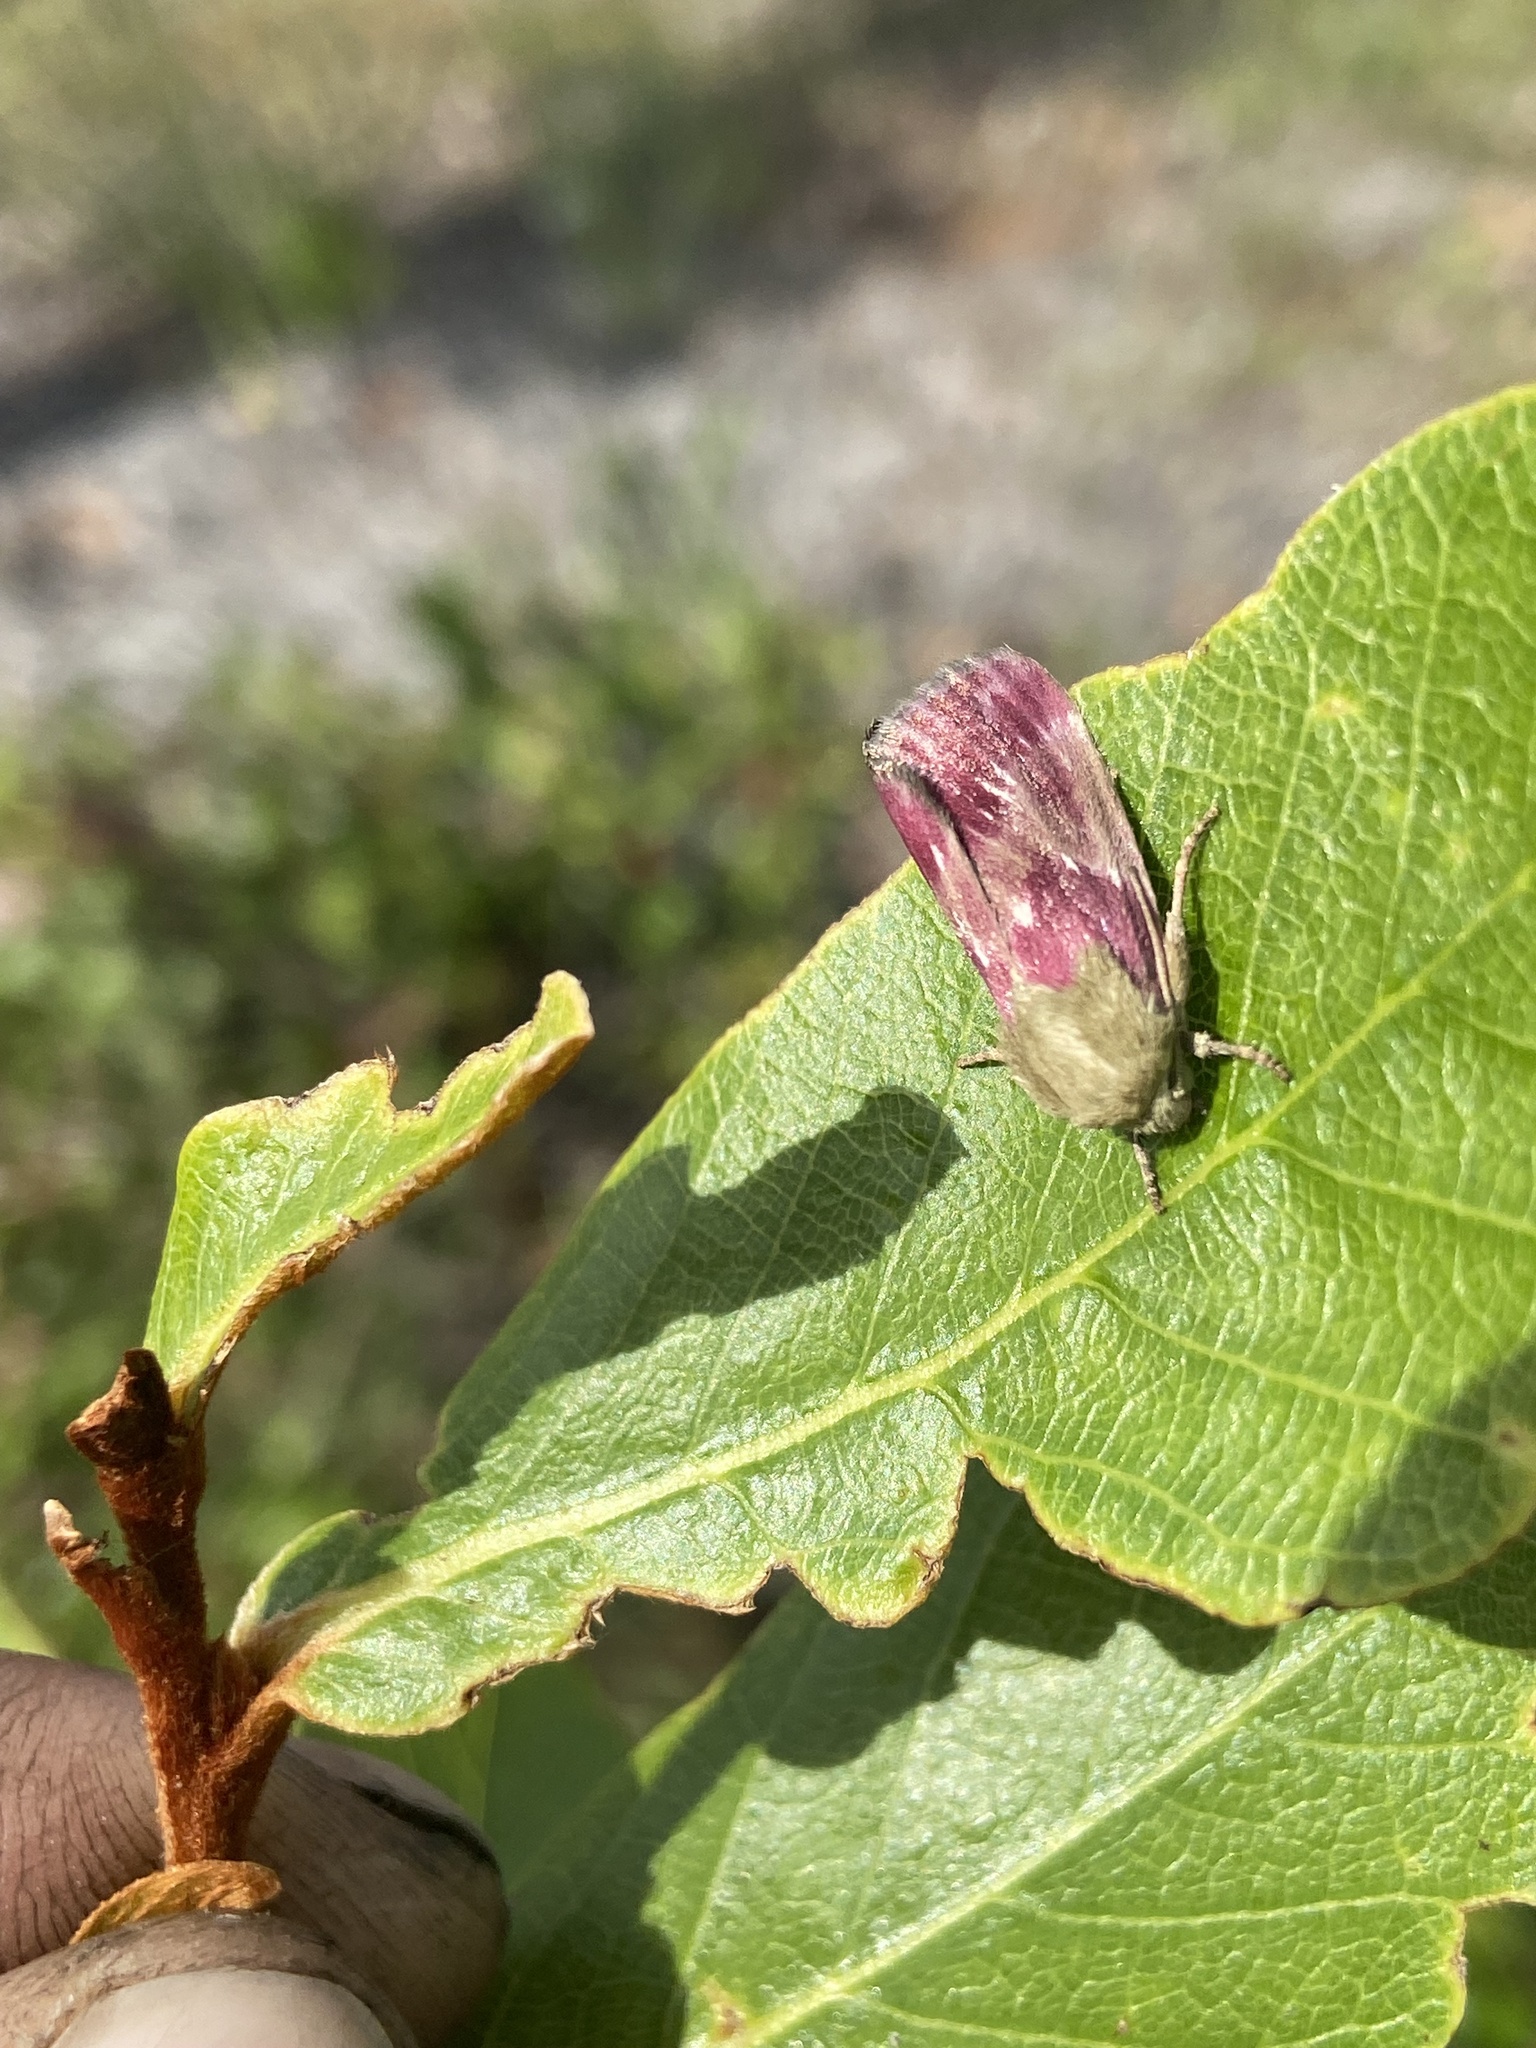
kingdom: Animalia
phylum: Arthropoda
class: Insecta
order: Lepidoptera
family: Noctuidae
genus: Schinia
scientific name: Schinia sanguinea
